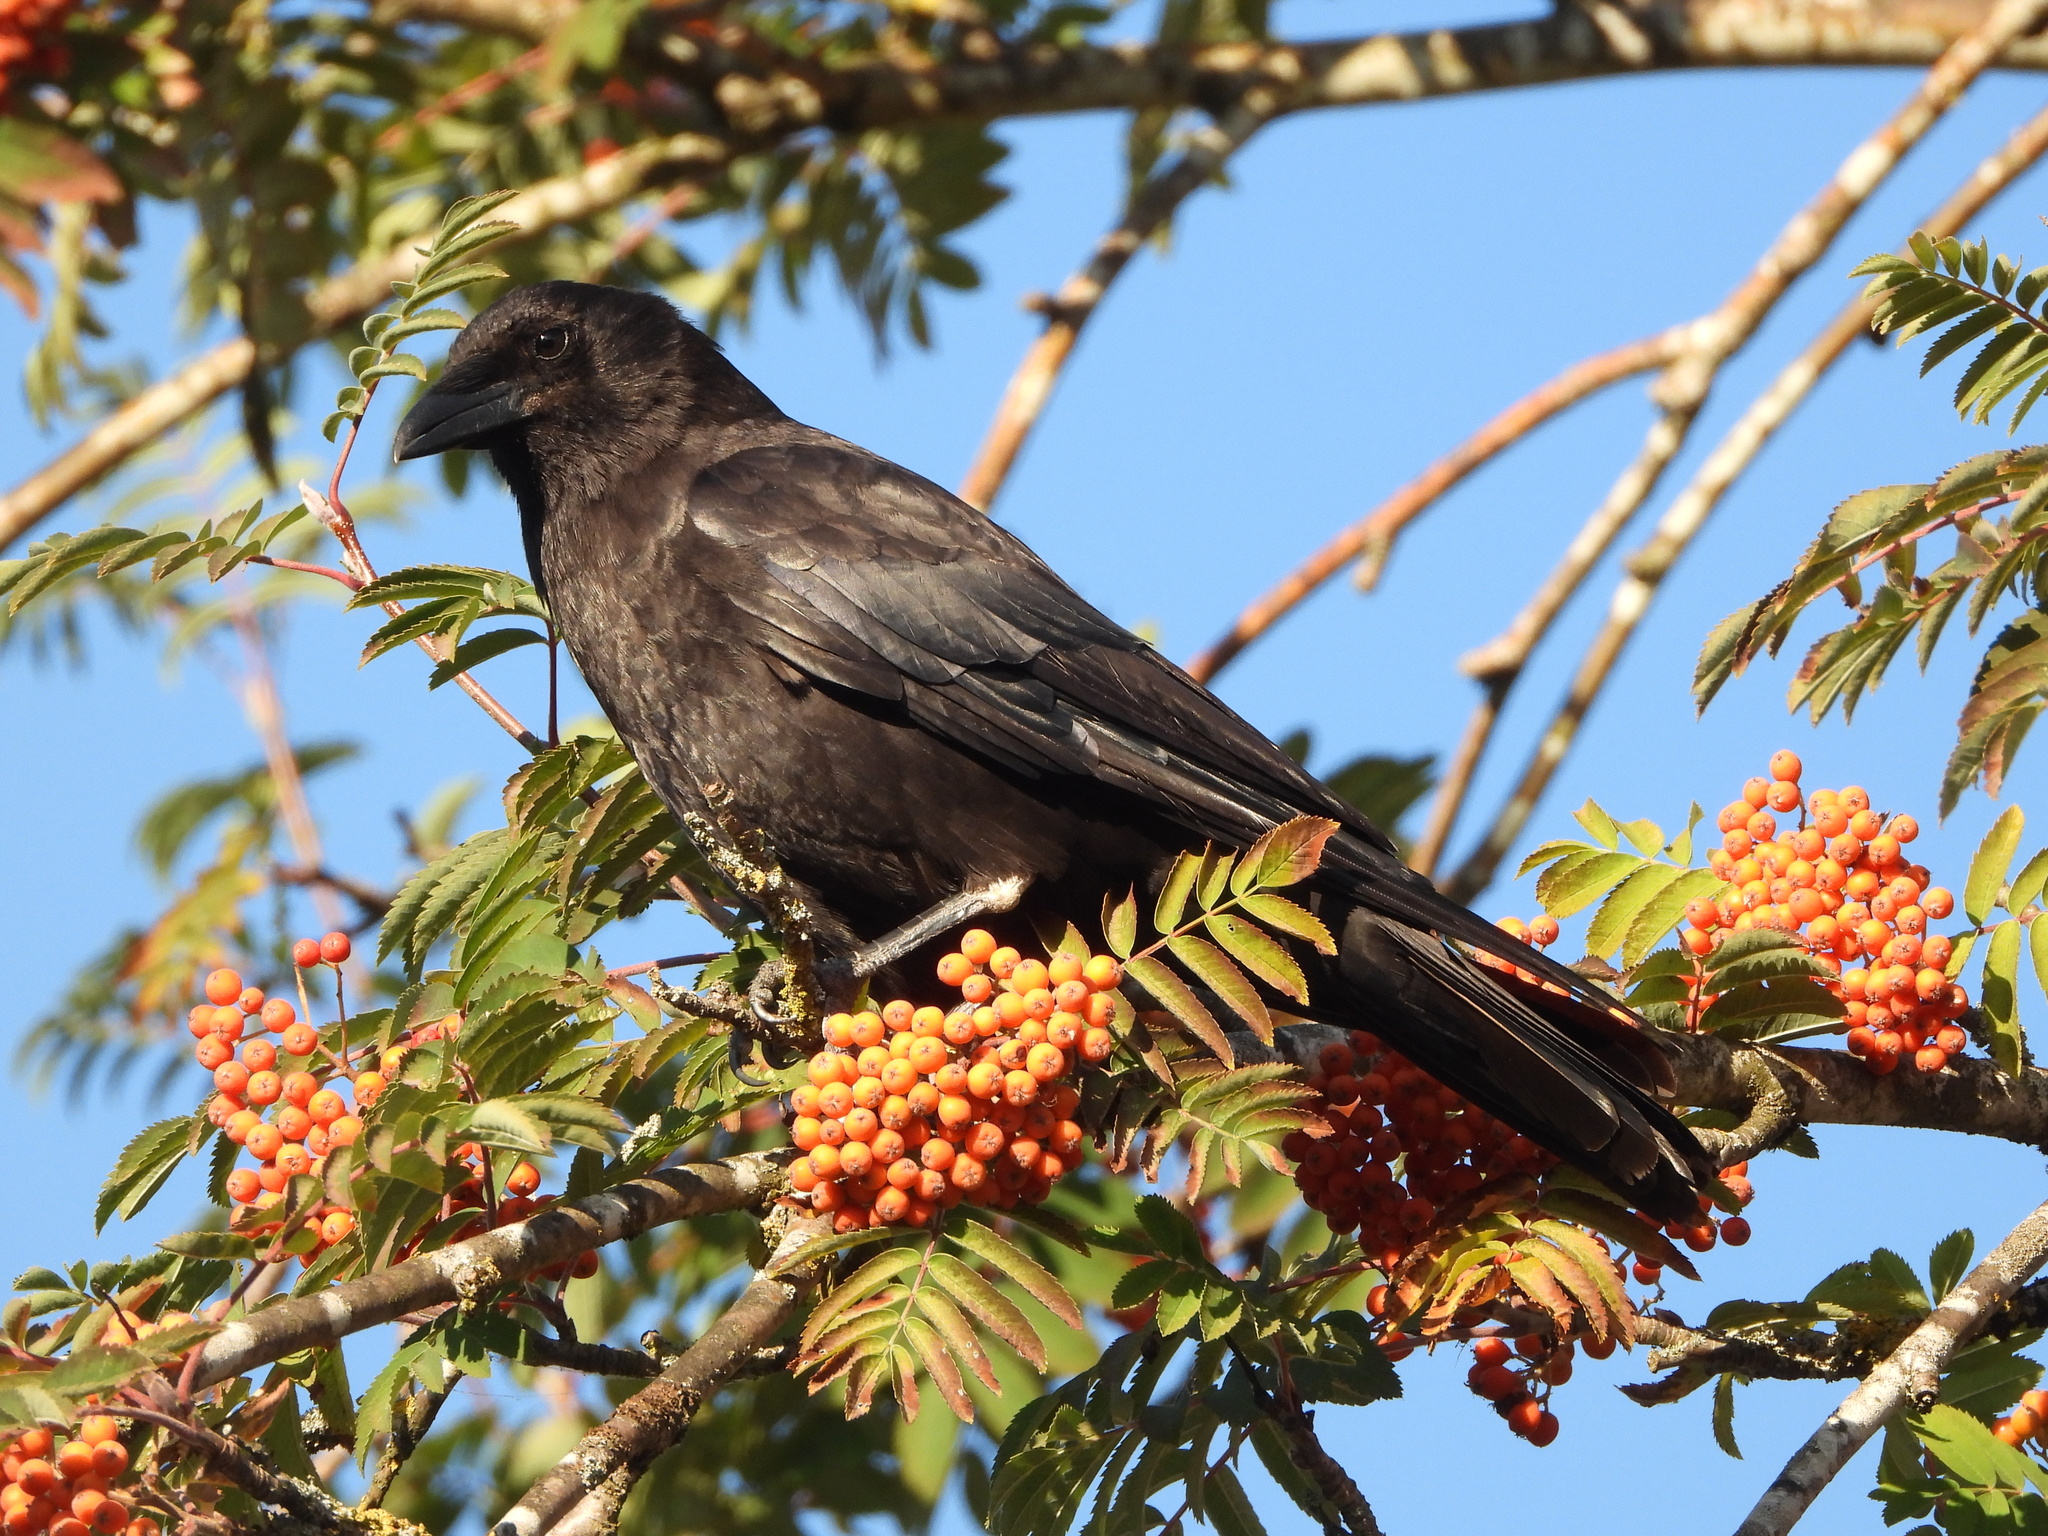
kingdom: Animalia
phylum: Chordata
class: Aves
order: Passeriformes
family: Corvidae
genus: Corvus
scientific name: Corvus brachyrhynchos
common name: American crow
